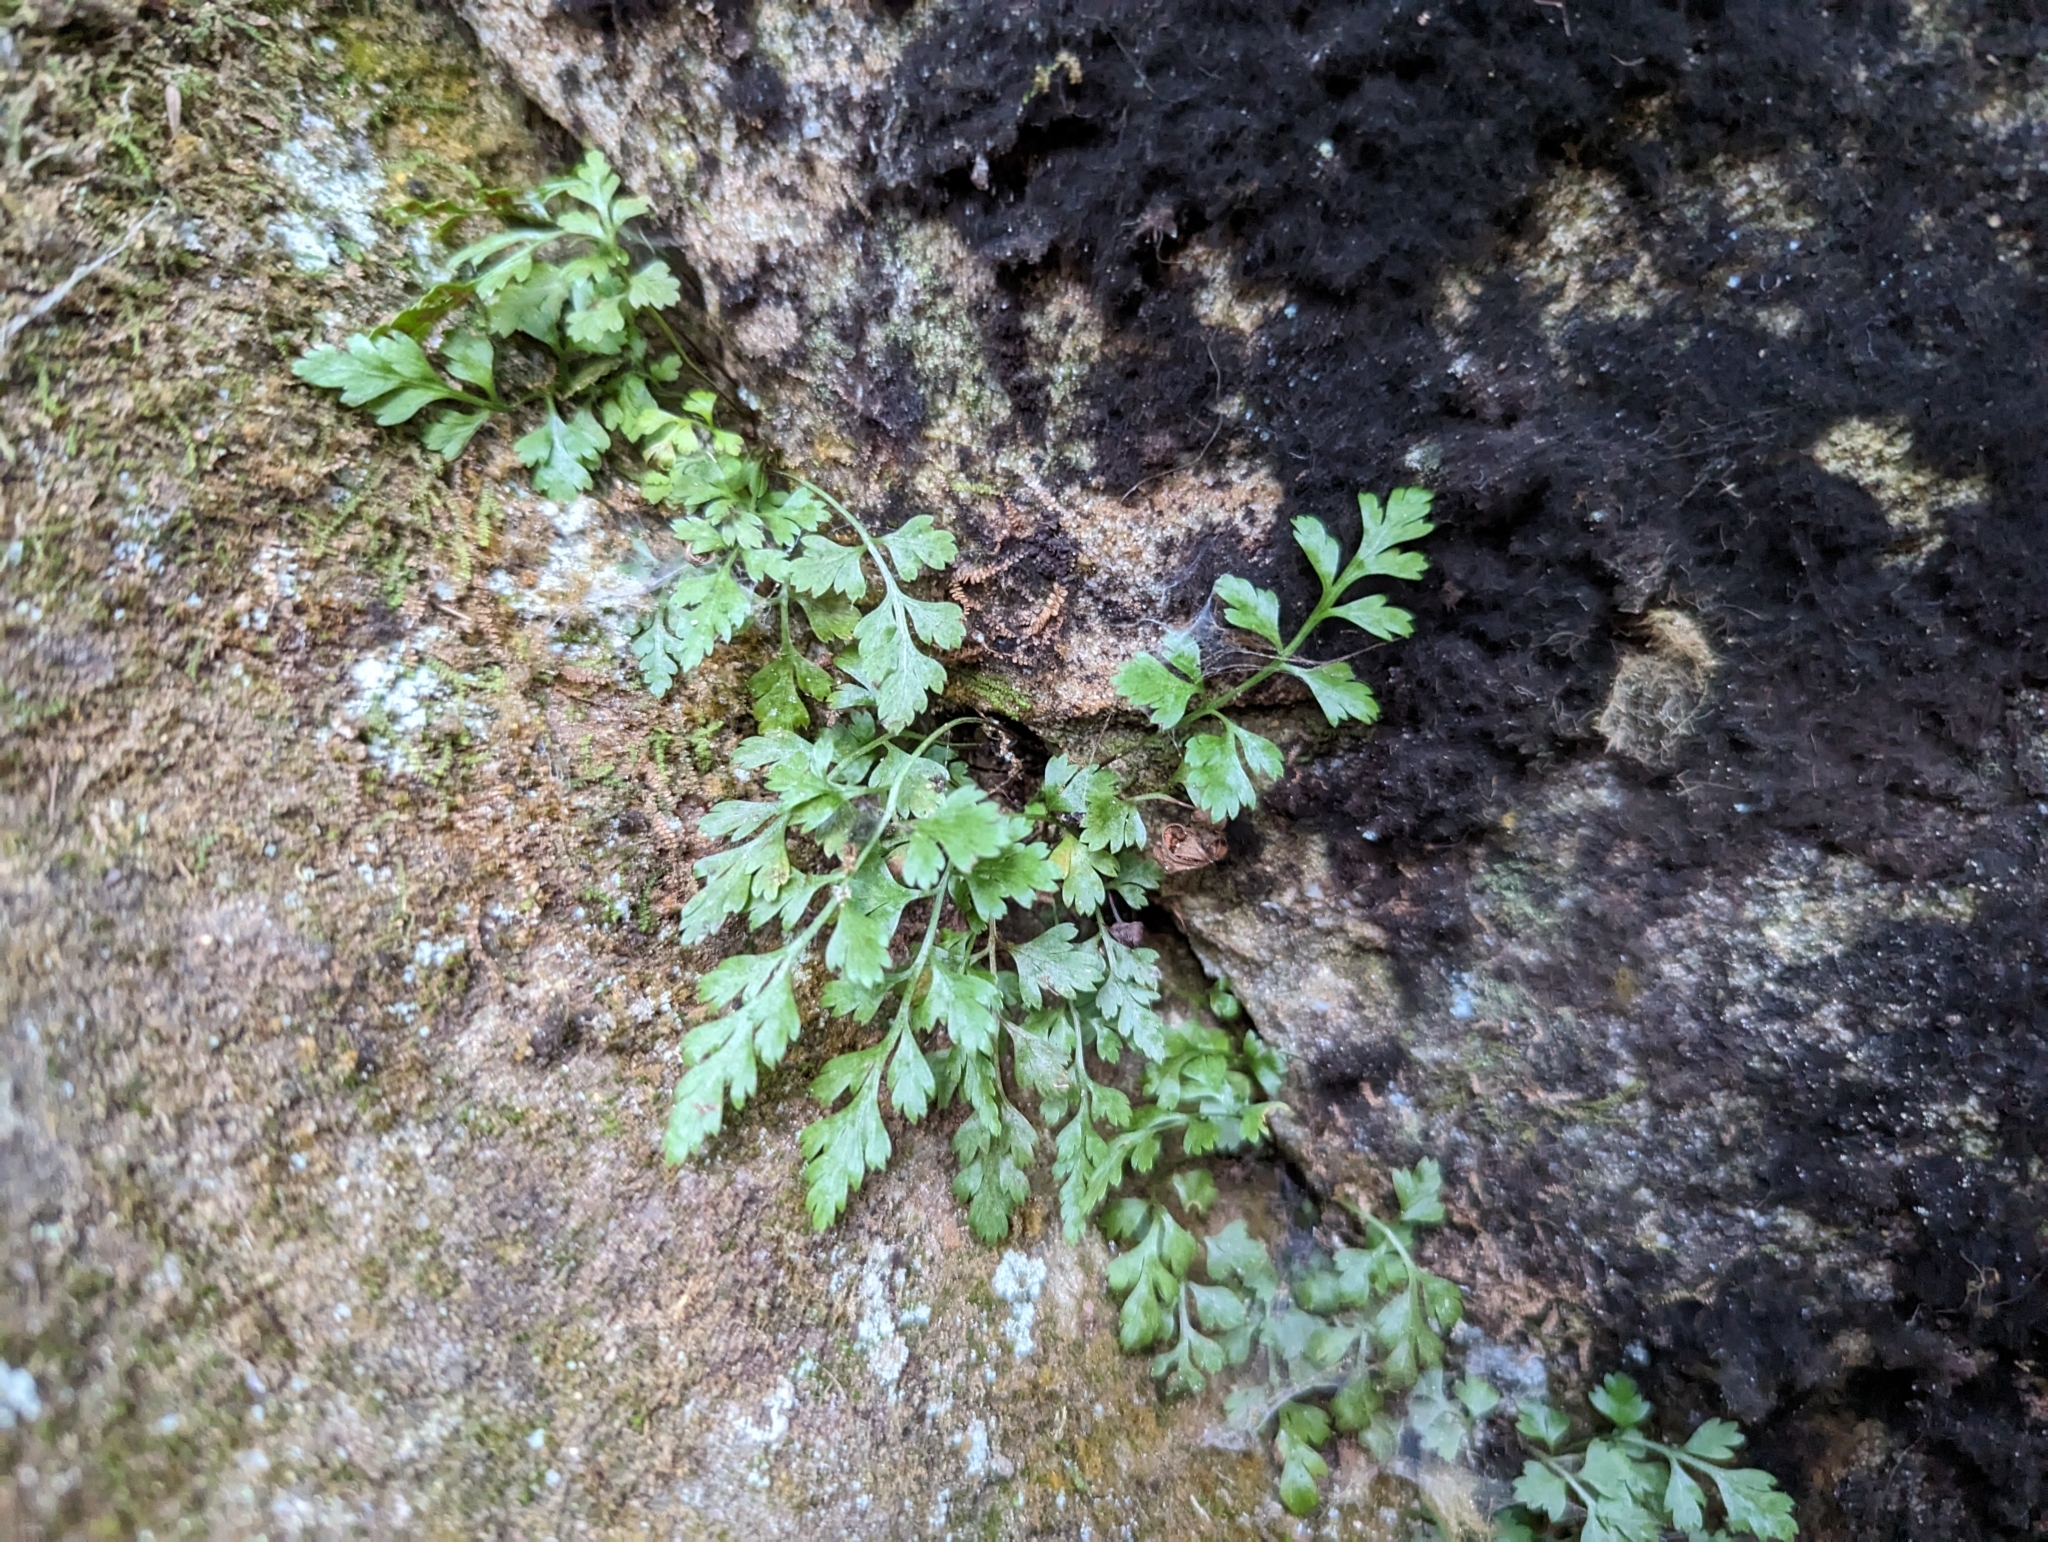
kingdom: Plantae
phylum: Tracheophyta
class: Polypodiopsida
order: Polypodiales
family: Aspleniaceae
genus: Asplenium
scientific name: Asplenium montanum
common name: Mountain spleenwort
